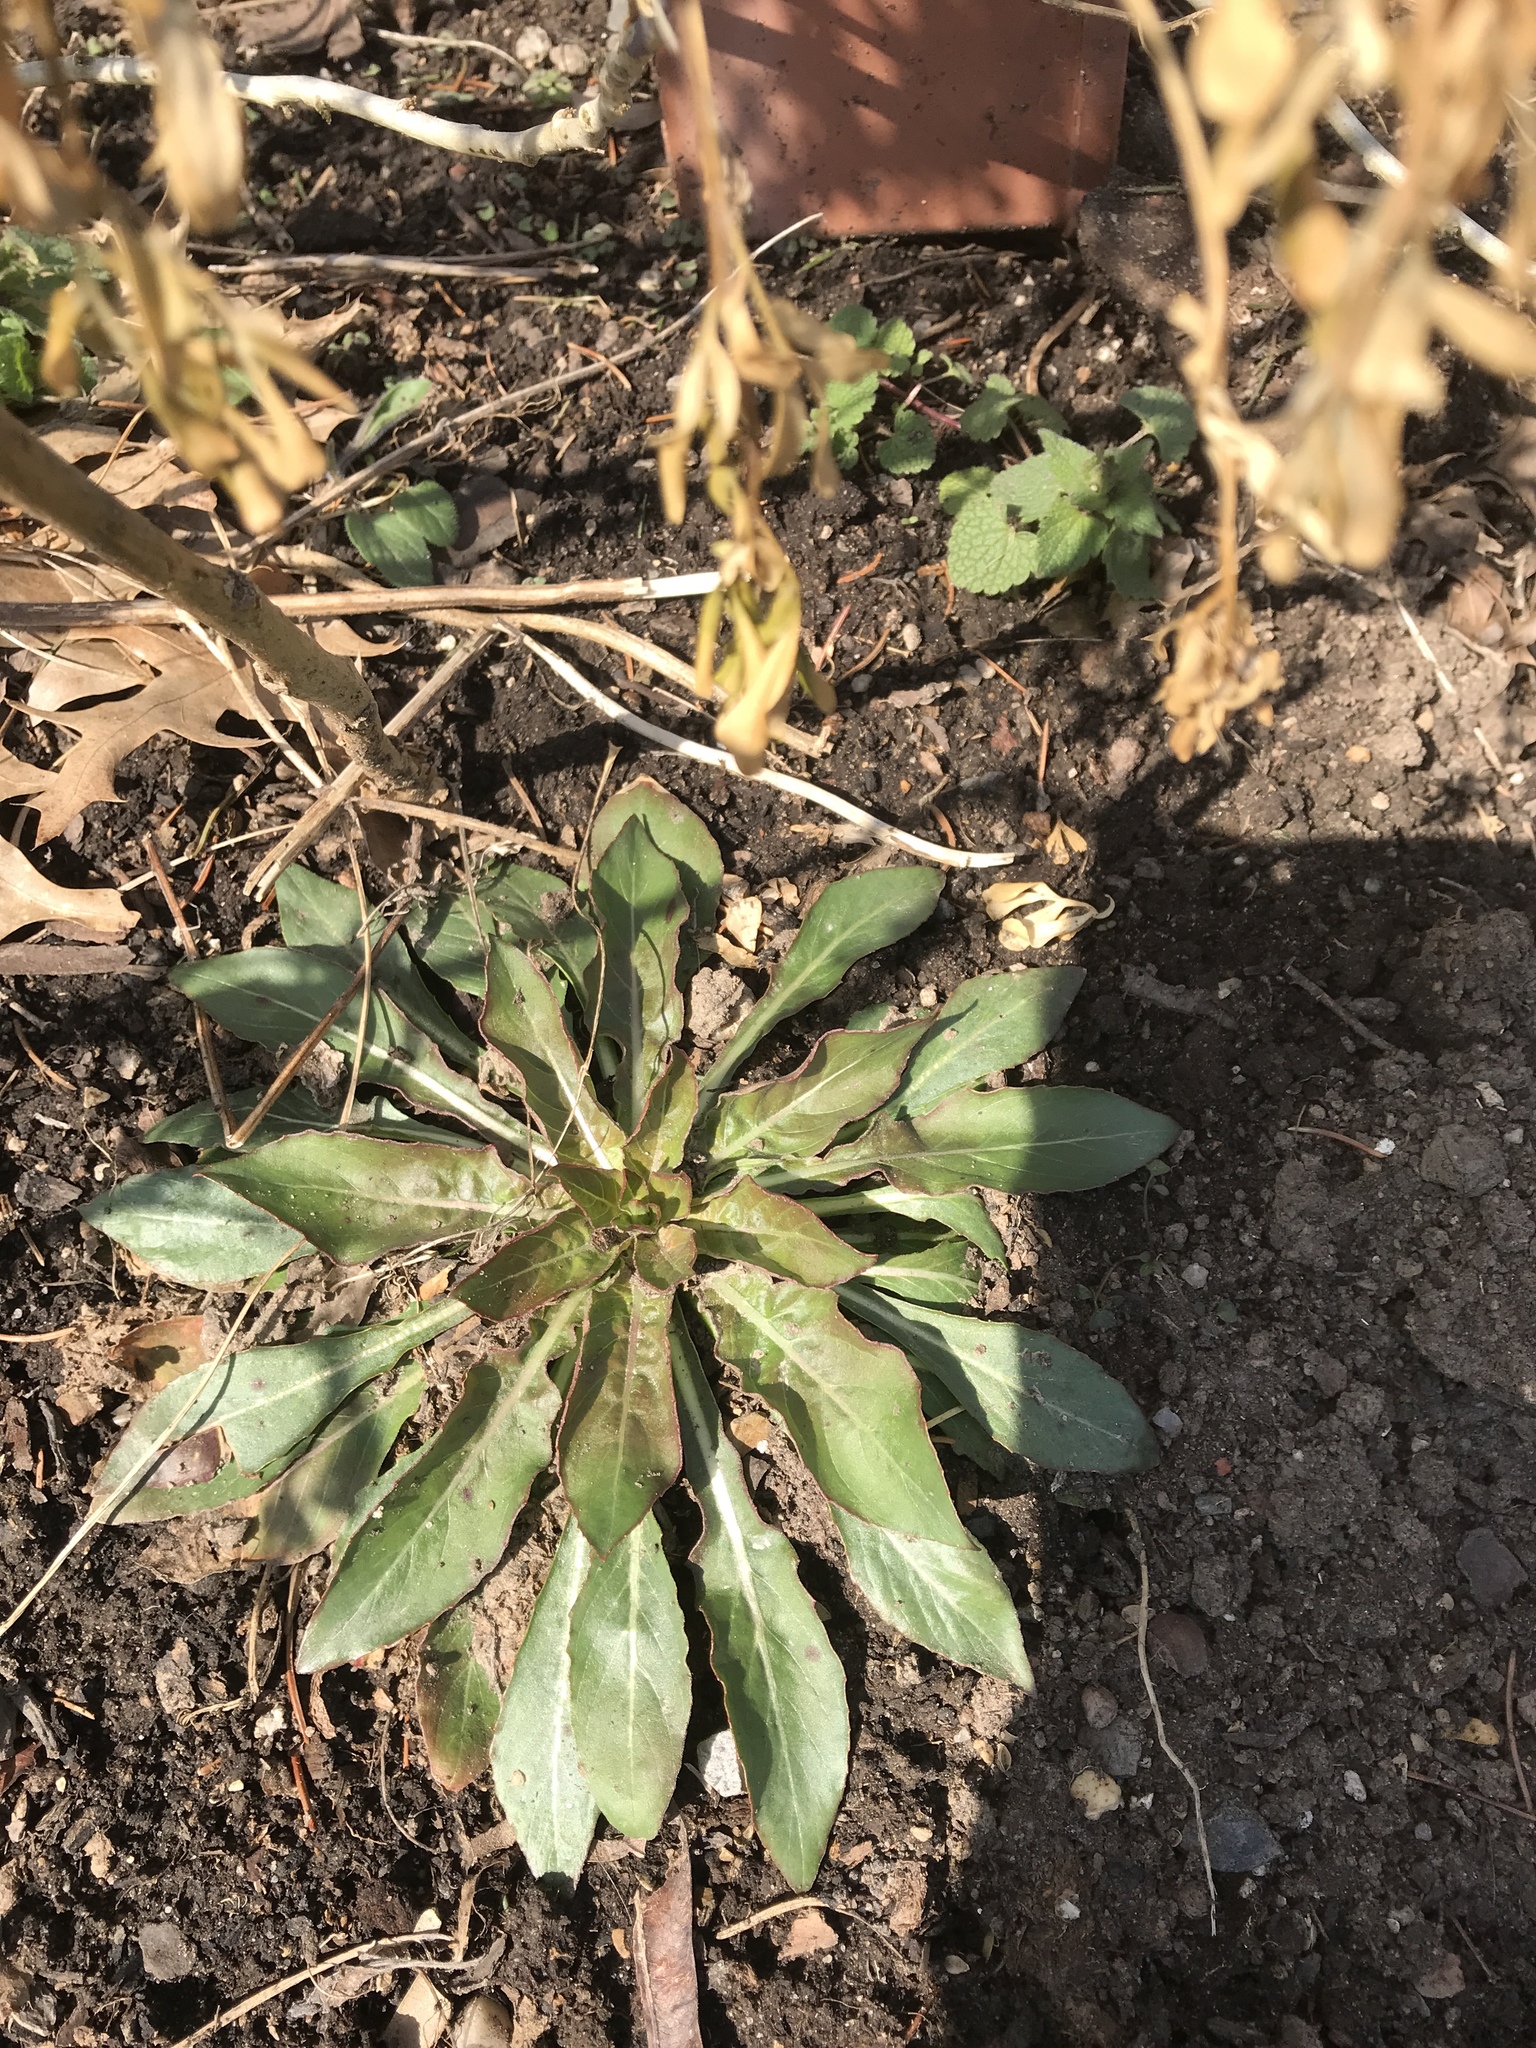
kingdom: Plantae
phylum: Tracheophyta
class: Magnoliopsida
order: Myrtales
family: Onagraceae
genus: Oenothera
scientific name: Oenothera biennis
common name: Common evening-primrose
